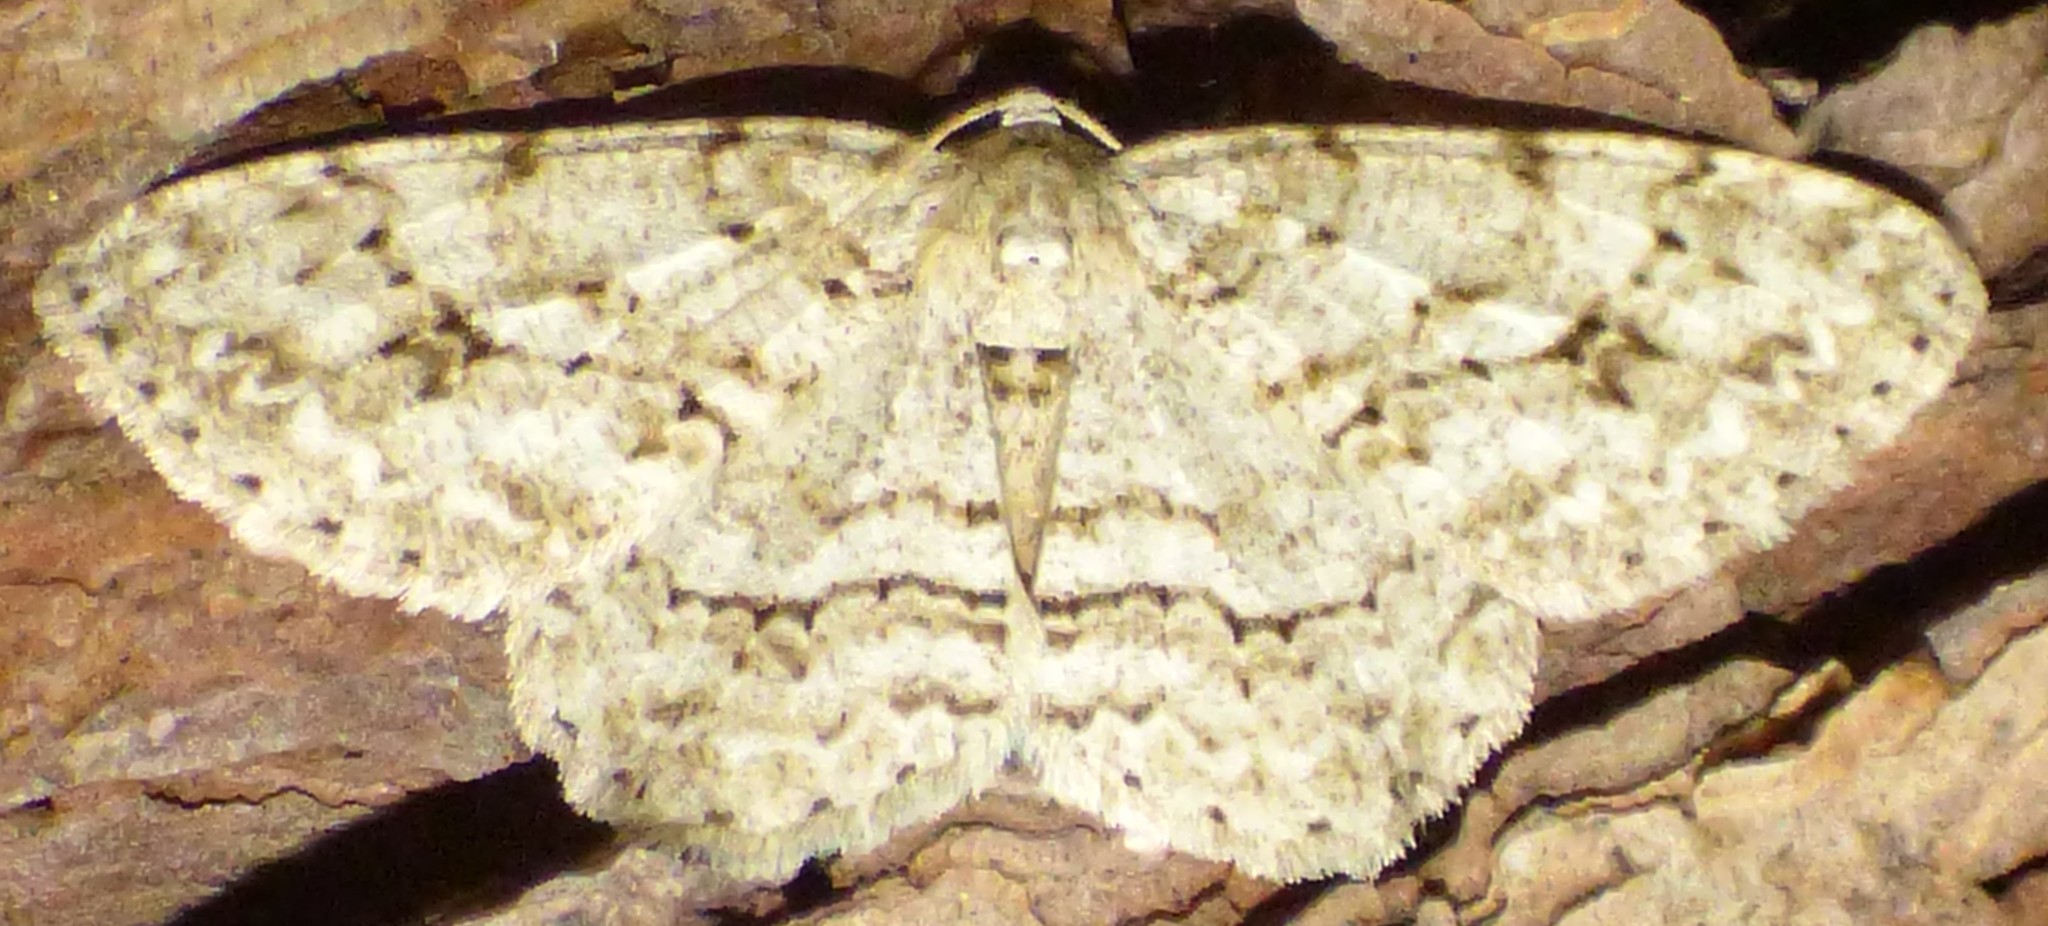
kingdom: Animalia
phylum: Arthropoda
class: Insecta
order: Lepidoptera
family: Geometridae
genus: Ectropis
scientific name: Ectropis crepuscularia
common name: Engrailed
